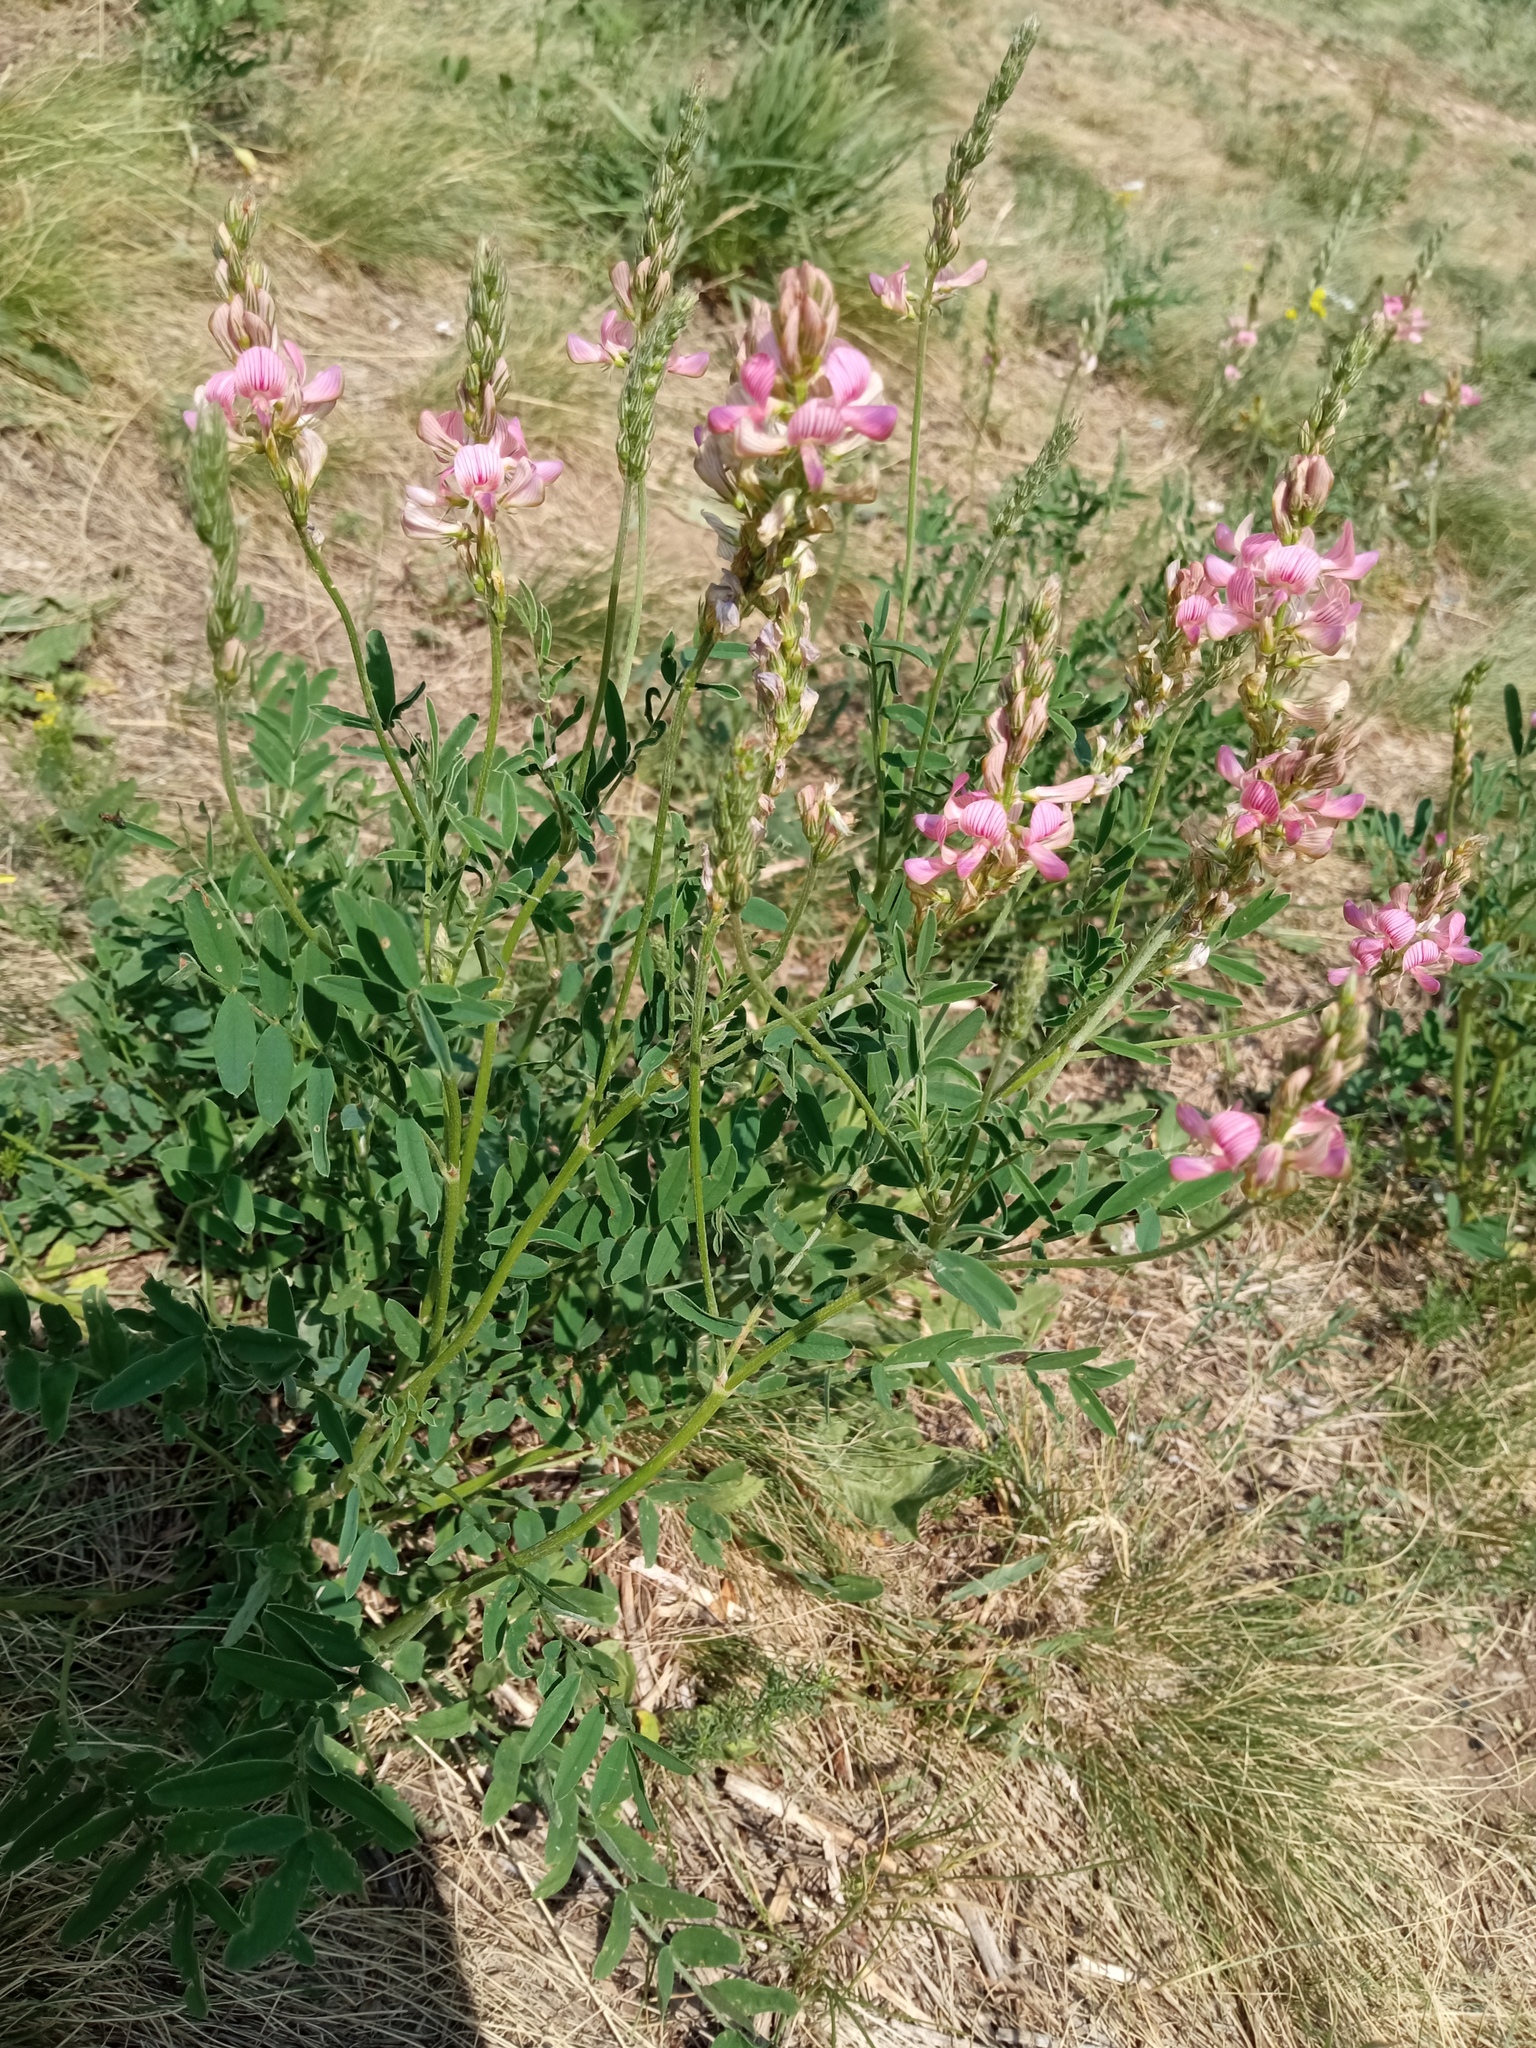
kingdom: Plantae
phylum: Tracheophyta
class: Magnoliopsida
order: Fabales
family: Fabaceae
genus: Onobrychis
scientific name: Onobrychis viciifolia
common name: Sainfoin
